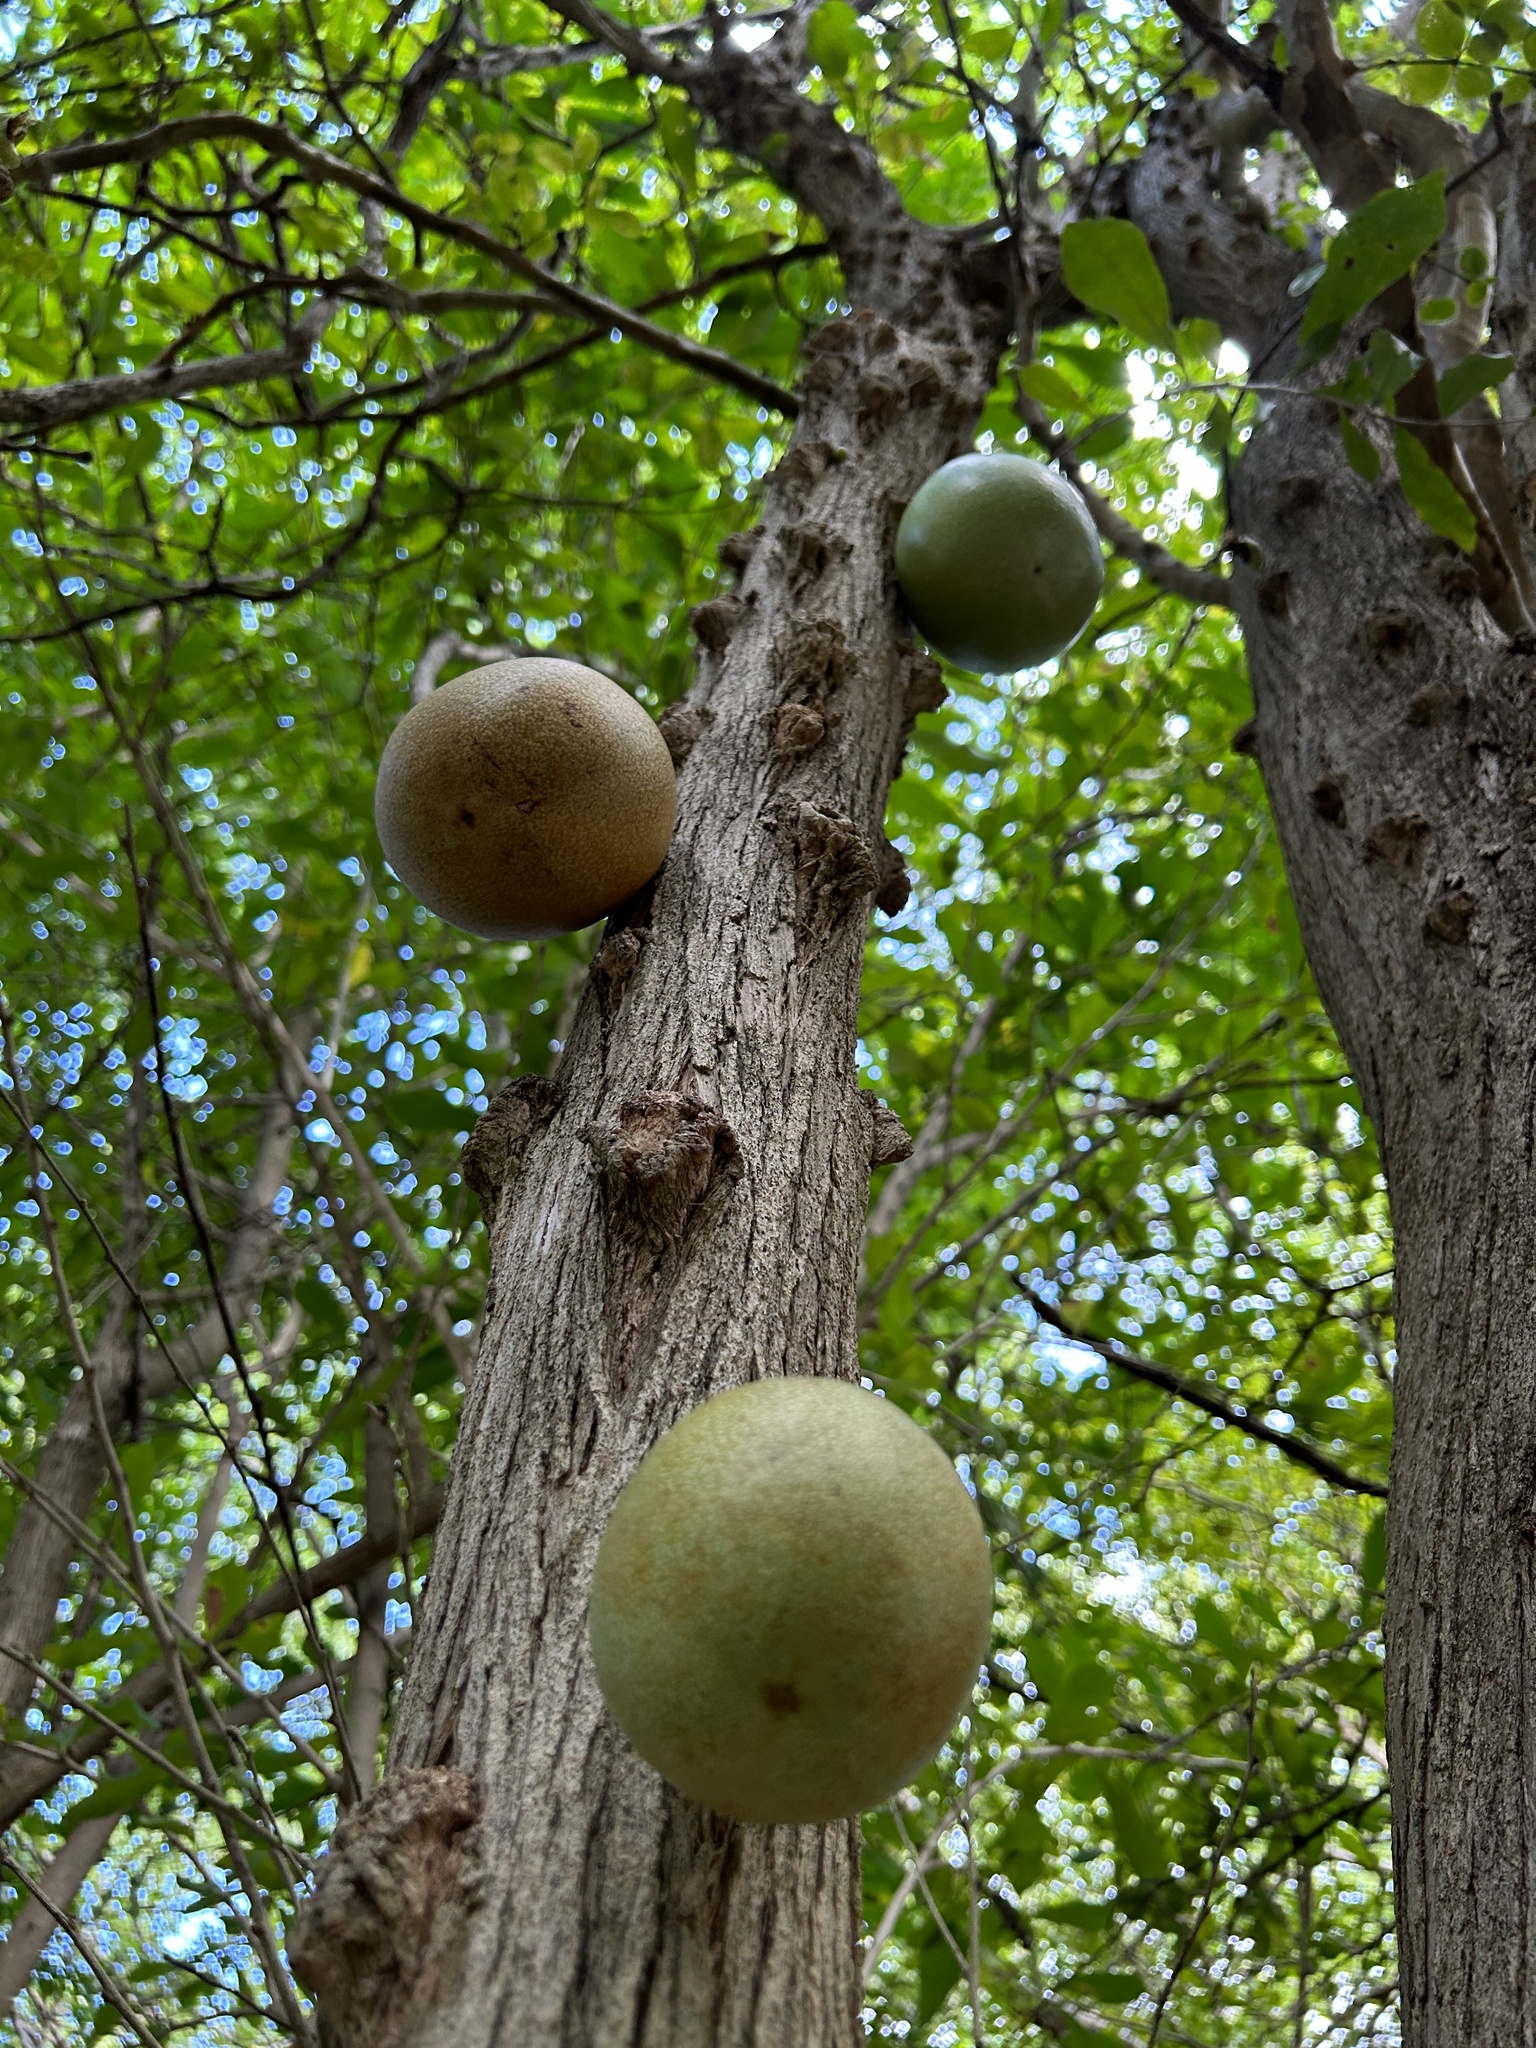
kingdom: Plantae
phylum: Tracheophyta
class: Magnoliopsida
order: Lamiales
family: Bignoniaceae
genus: Crescentia
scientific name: Crescentia cujete
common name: Calabash
